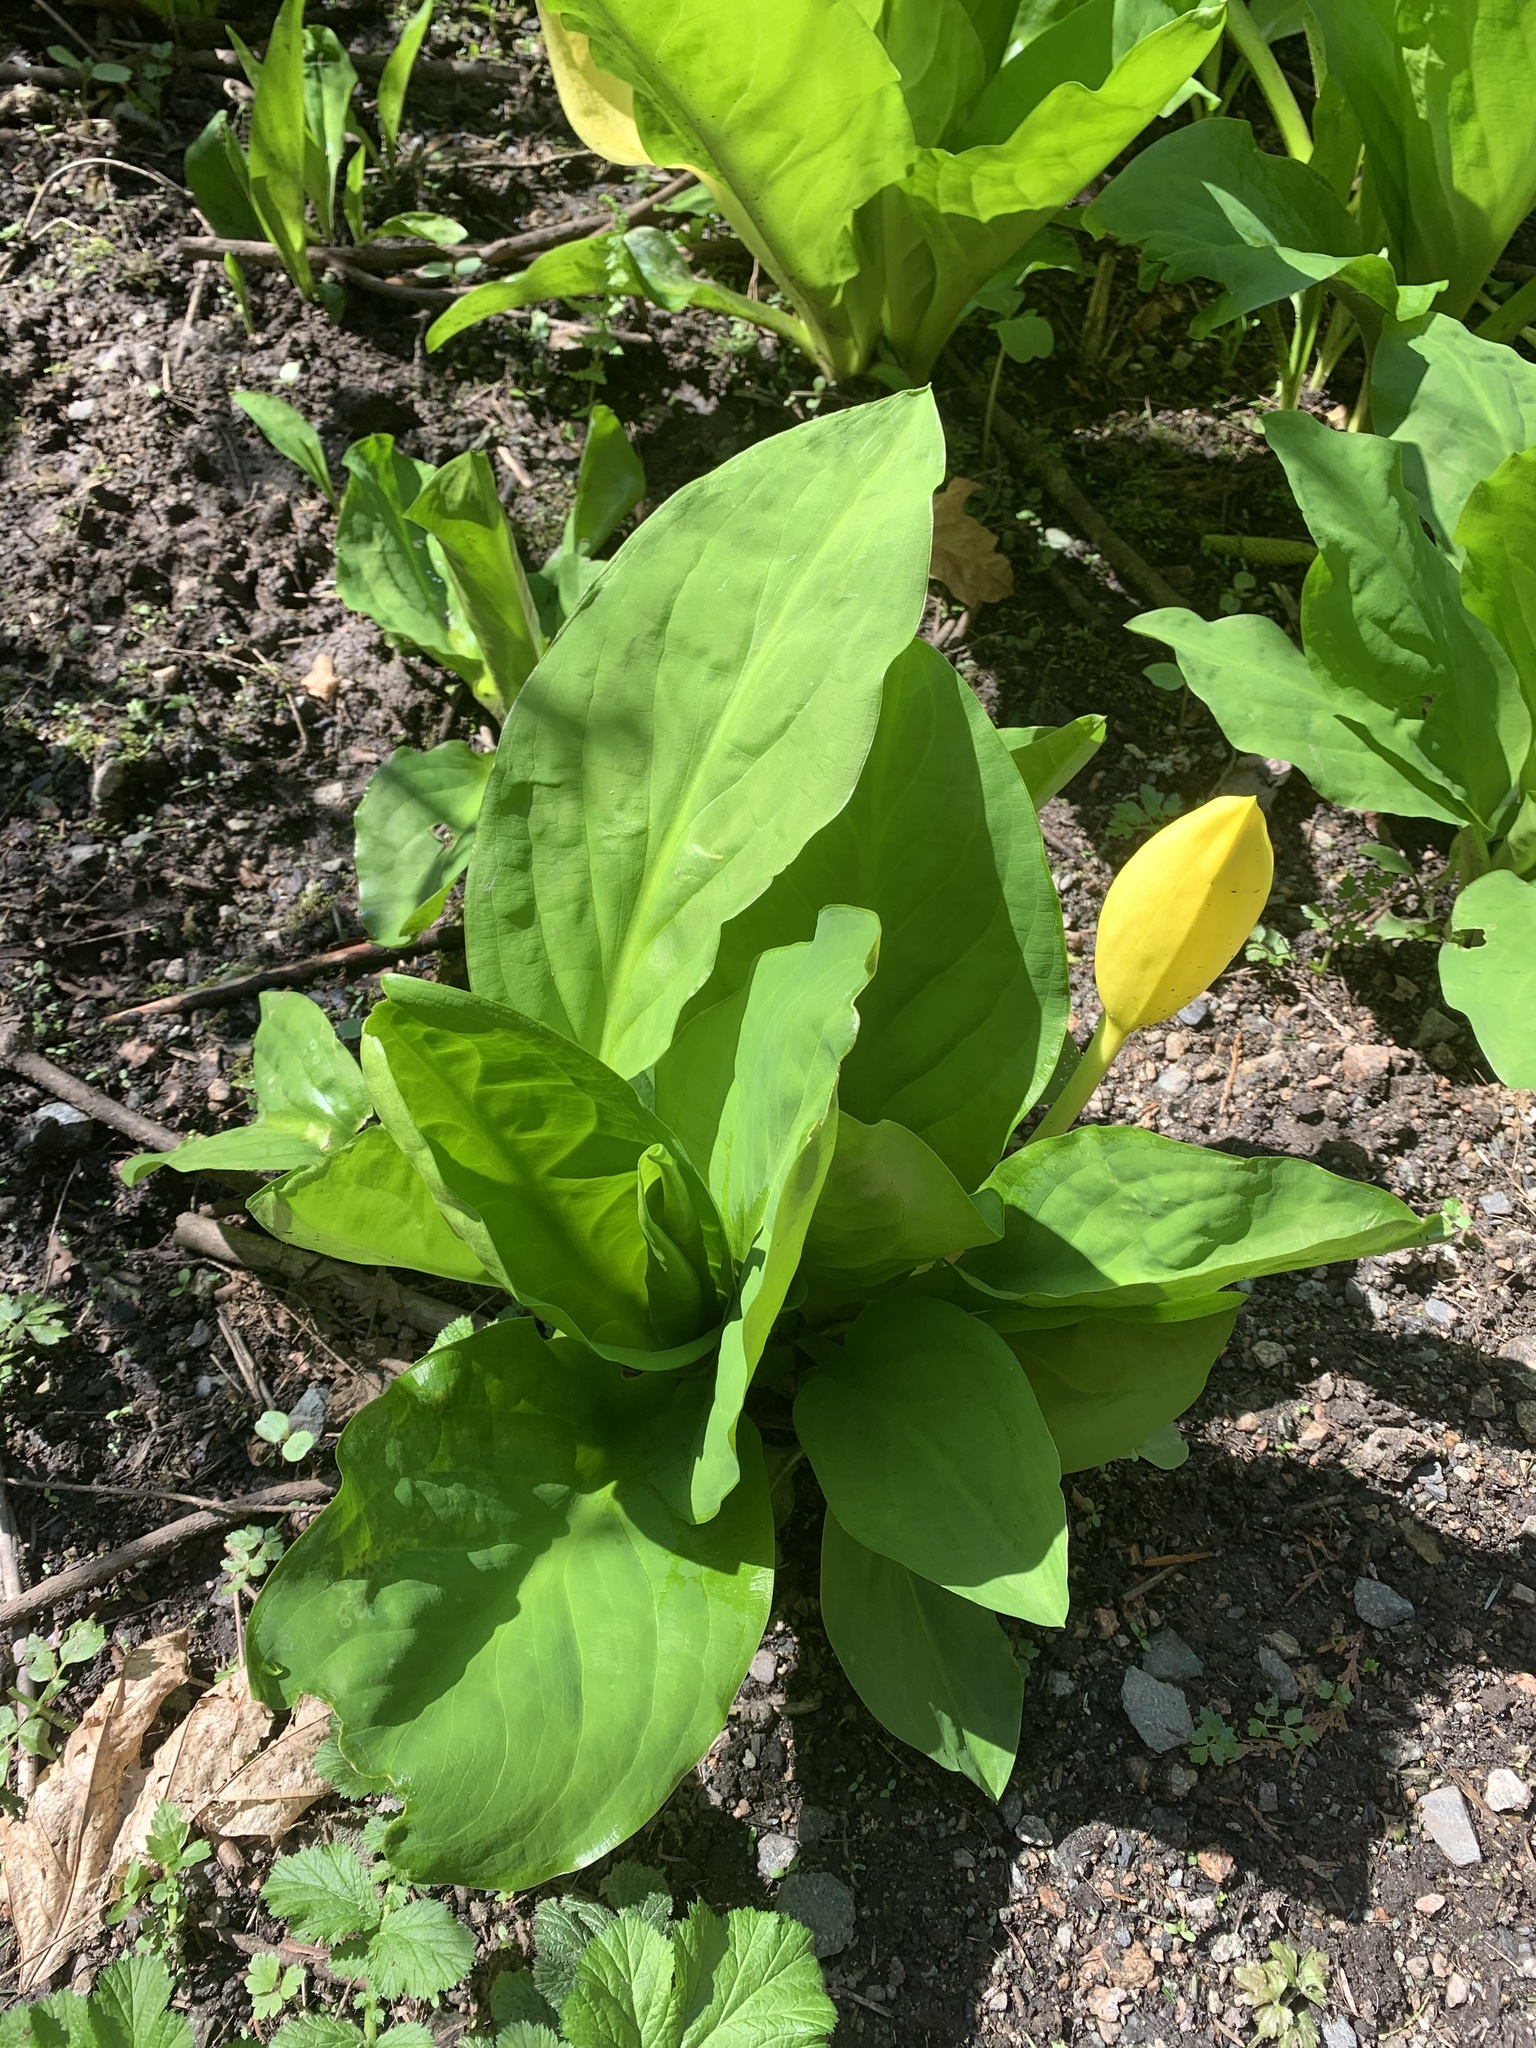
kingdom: Plantae
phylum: Tracheophyta
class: Liliopsida
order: Alismatales
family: Araceae
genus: Lysichiton
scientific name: Lysichiton americanus
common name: American skunk cabbage
